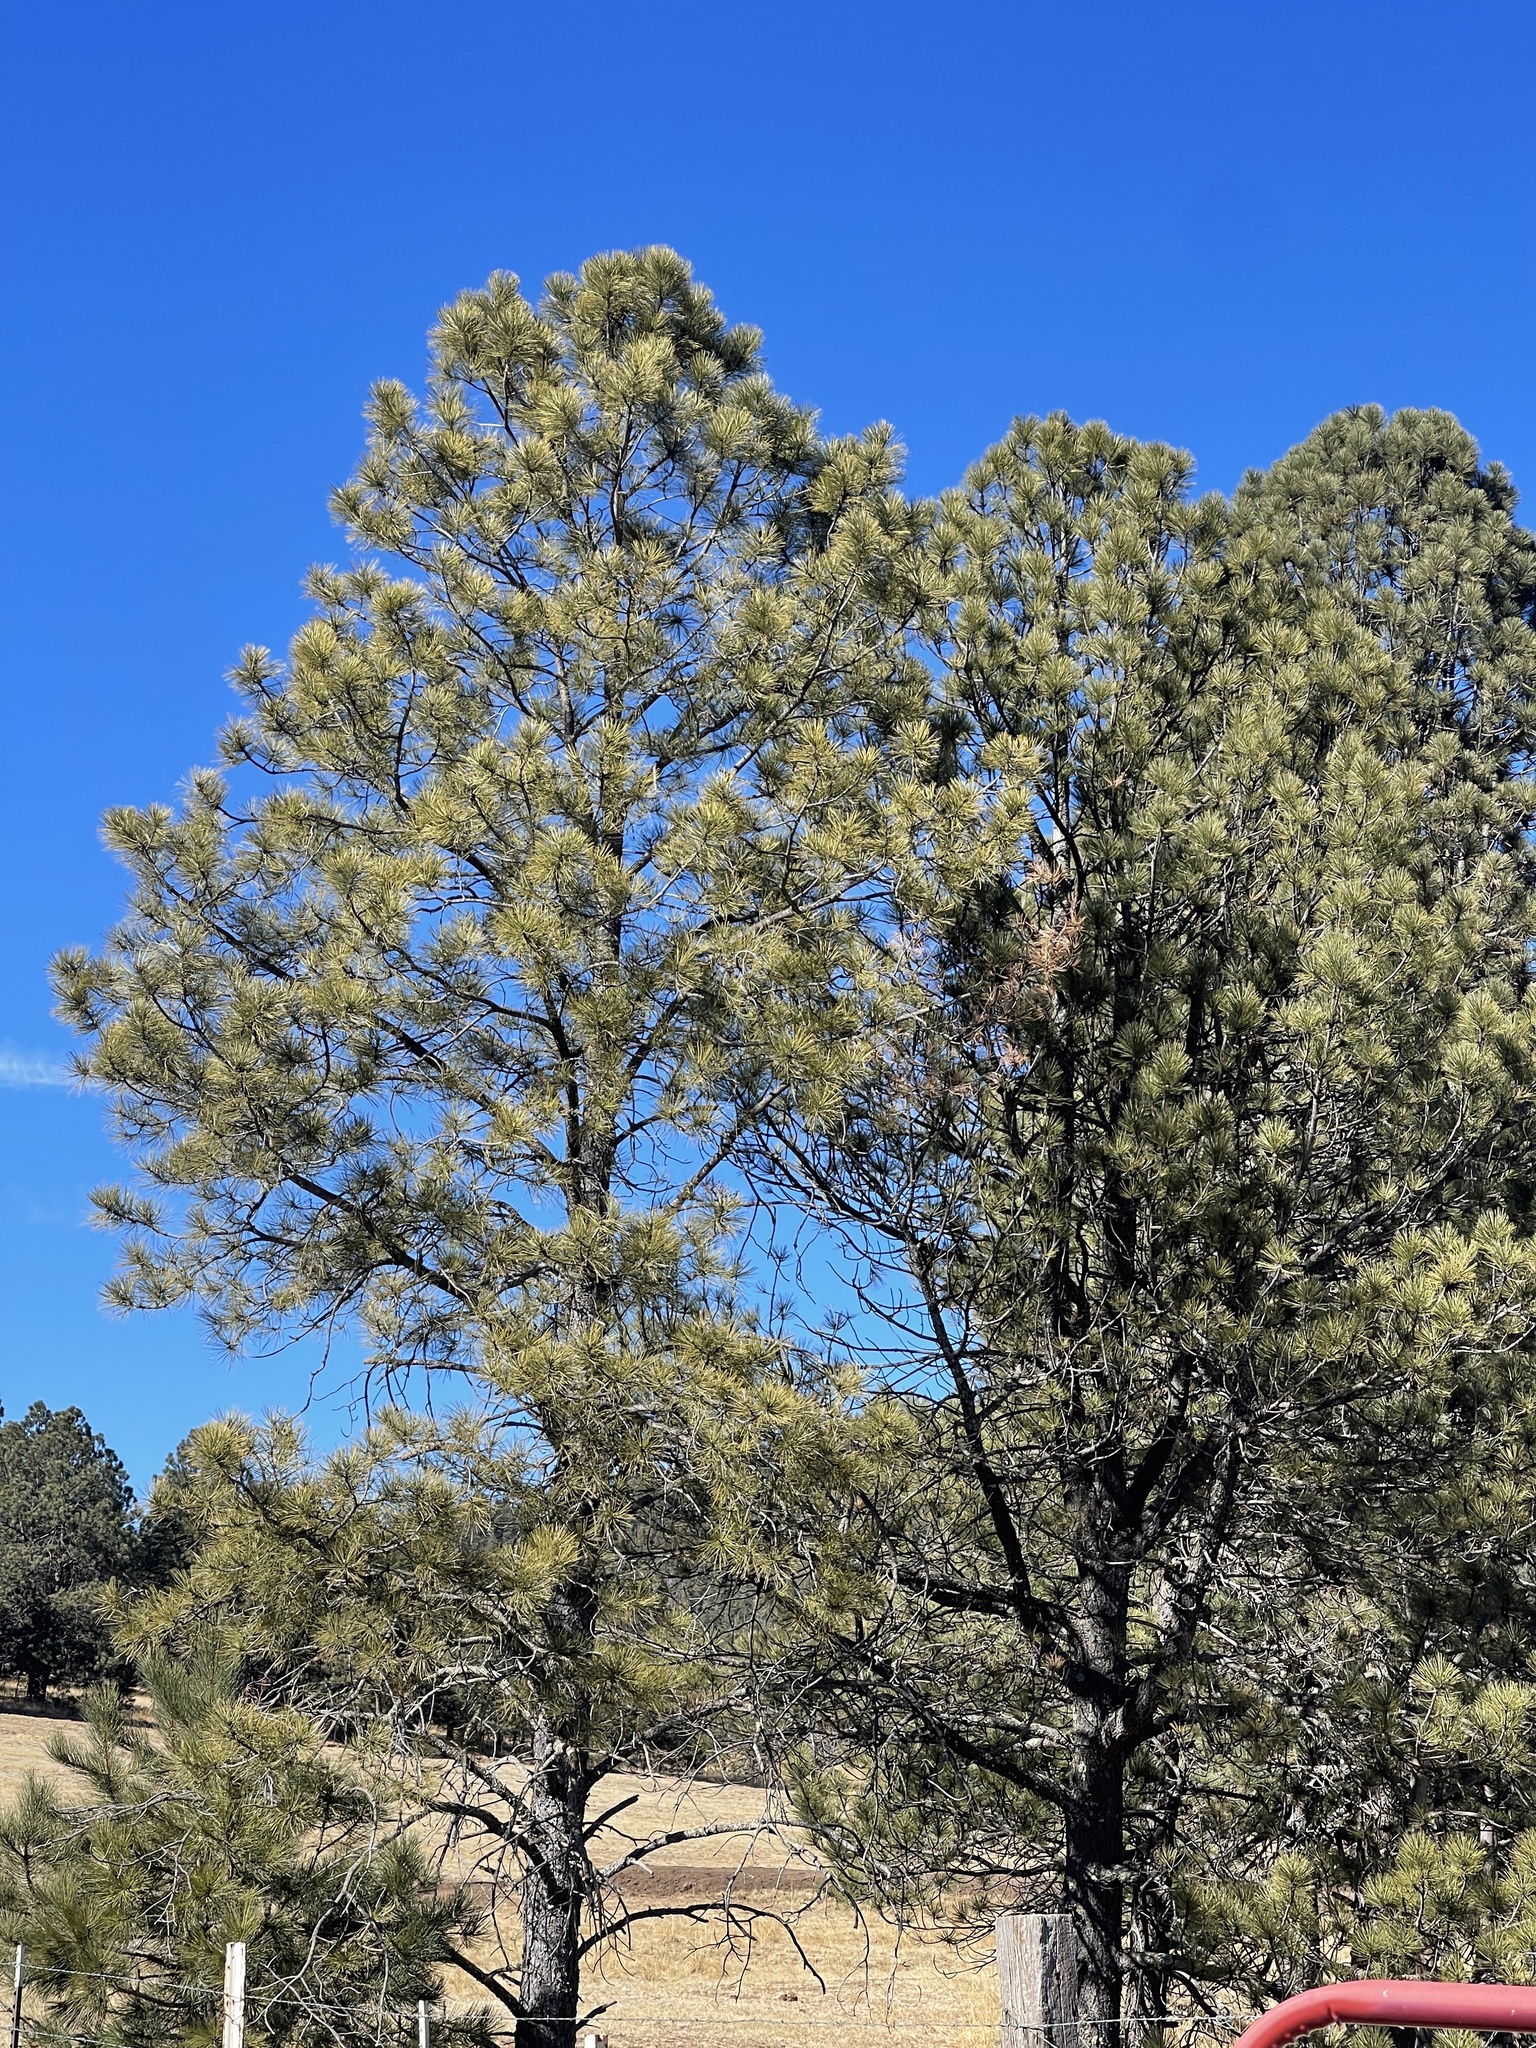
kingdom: Plantae
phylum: Tracheophyta
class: Pinopsida
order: Pinales
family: Pinaceae
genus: Pinus
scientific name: Pinus ponderosa
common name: Western yellow-pine
